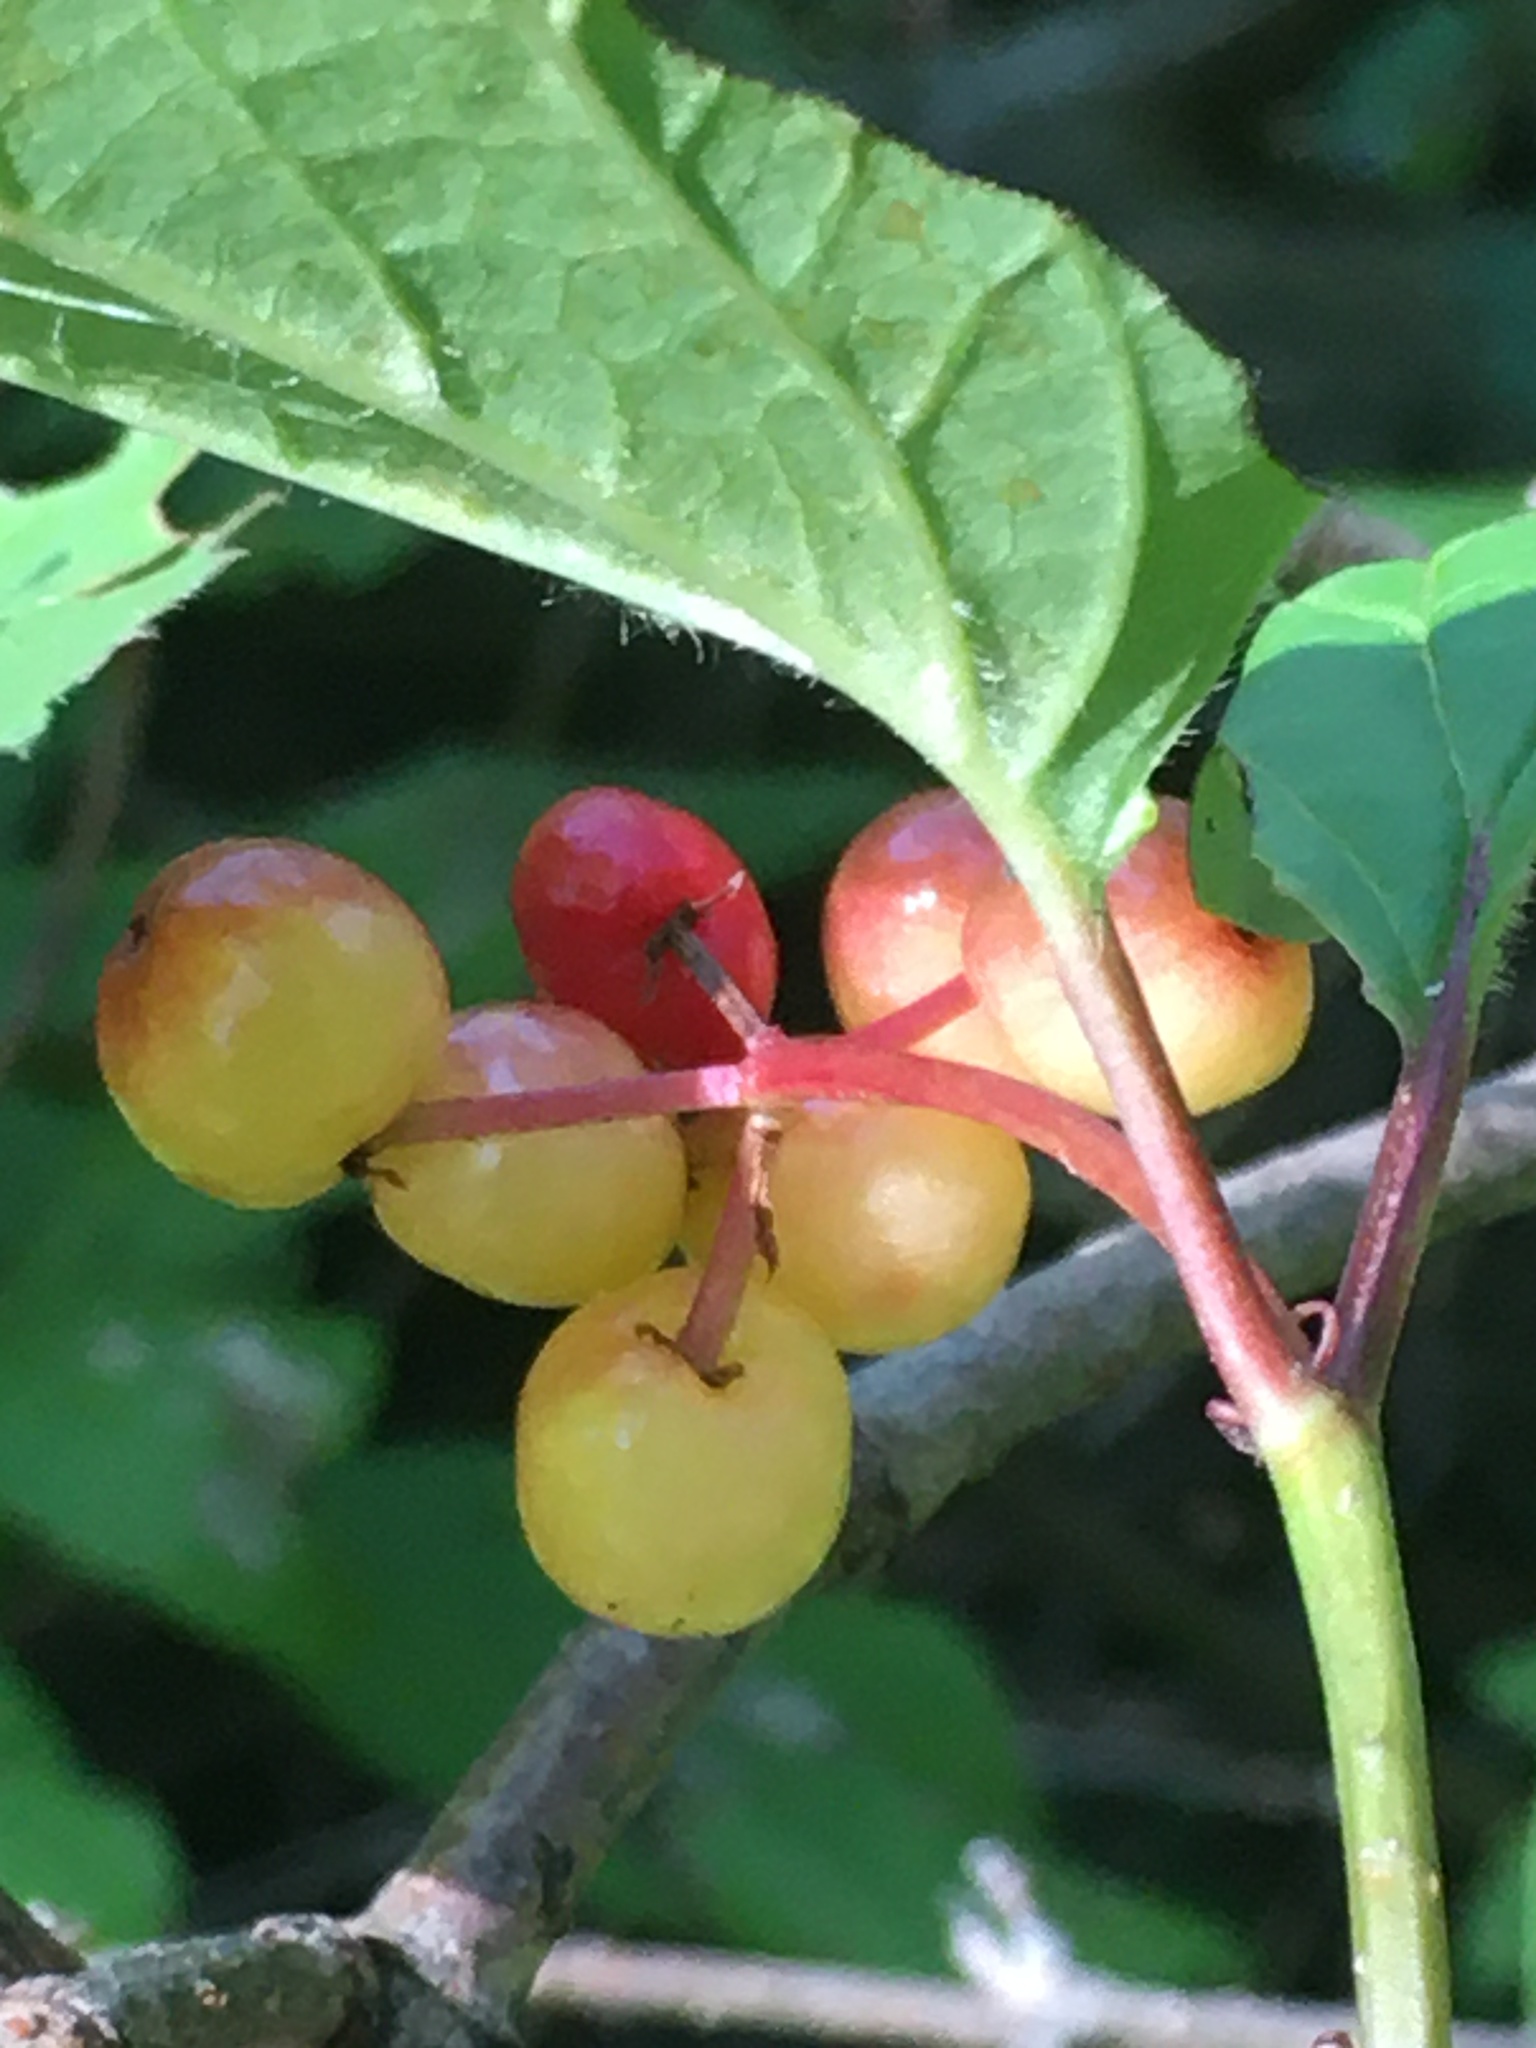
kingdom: Plantae
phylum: Tracheophyta
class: Magnoliopsida
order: Dipsacales
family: Viburnaceae
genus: Viburnum
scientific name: Viburnum edule
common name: Mooseberry
